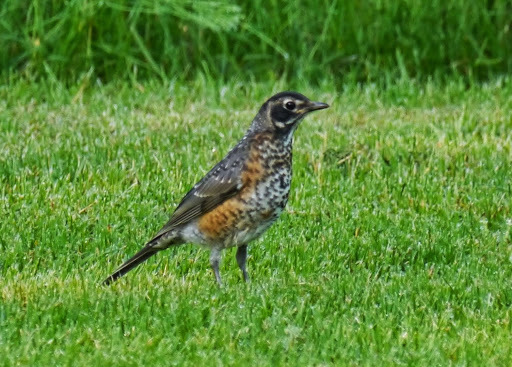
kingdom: Animalia
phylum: Chordata
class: Aves
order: Passeriformes
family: Turdidae
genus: Turdus
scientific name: Turdus migratorius
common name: American robin
